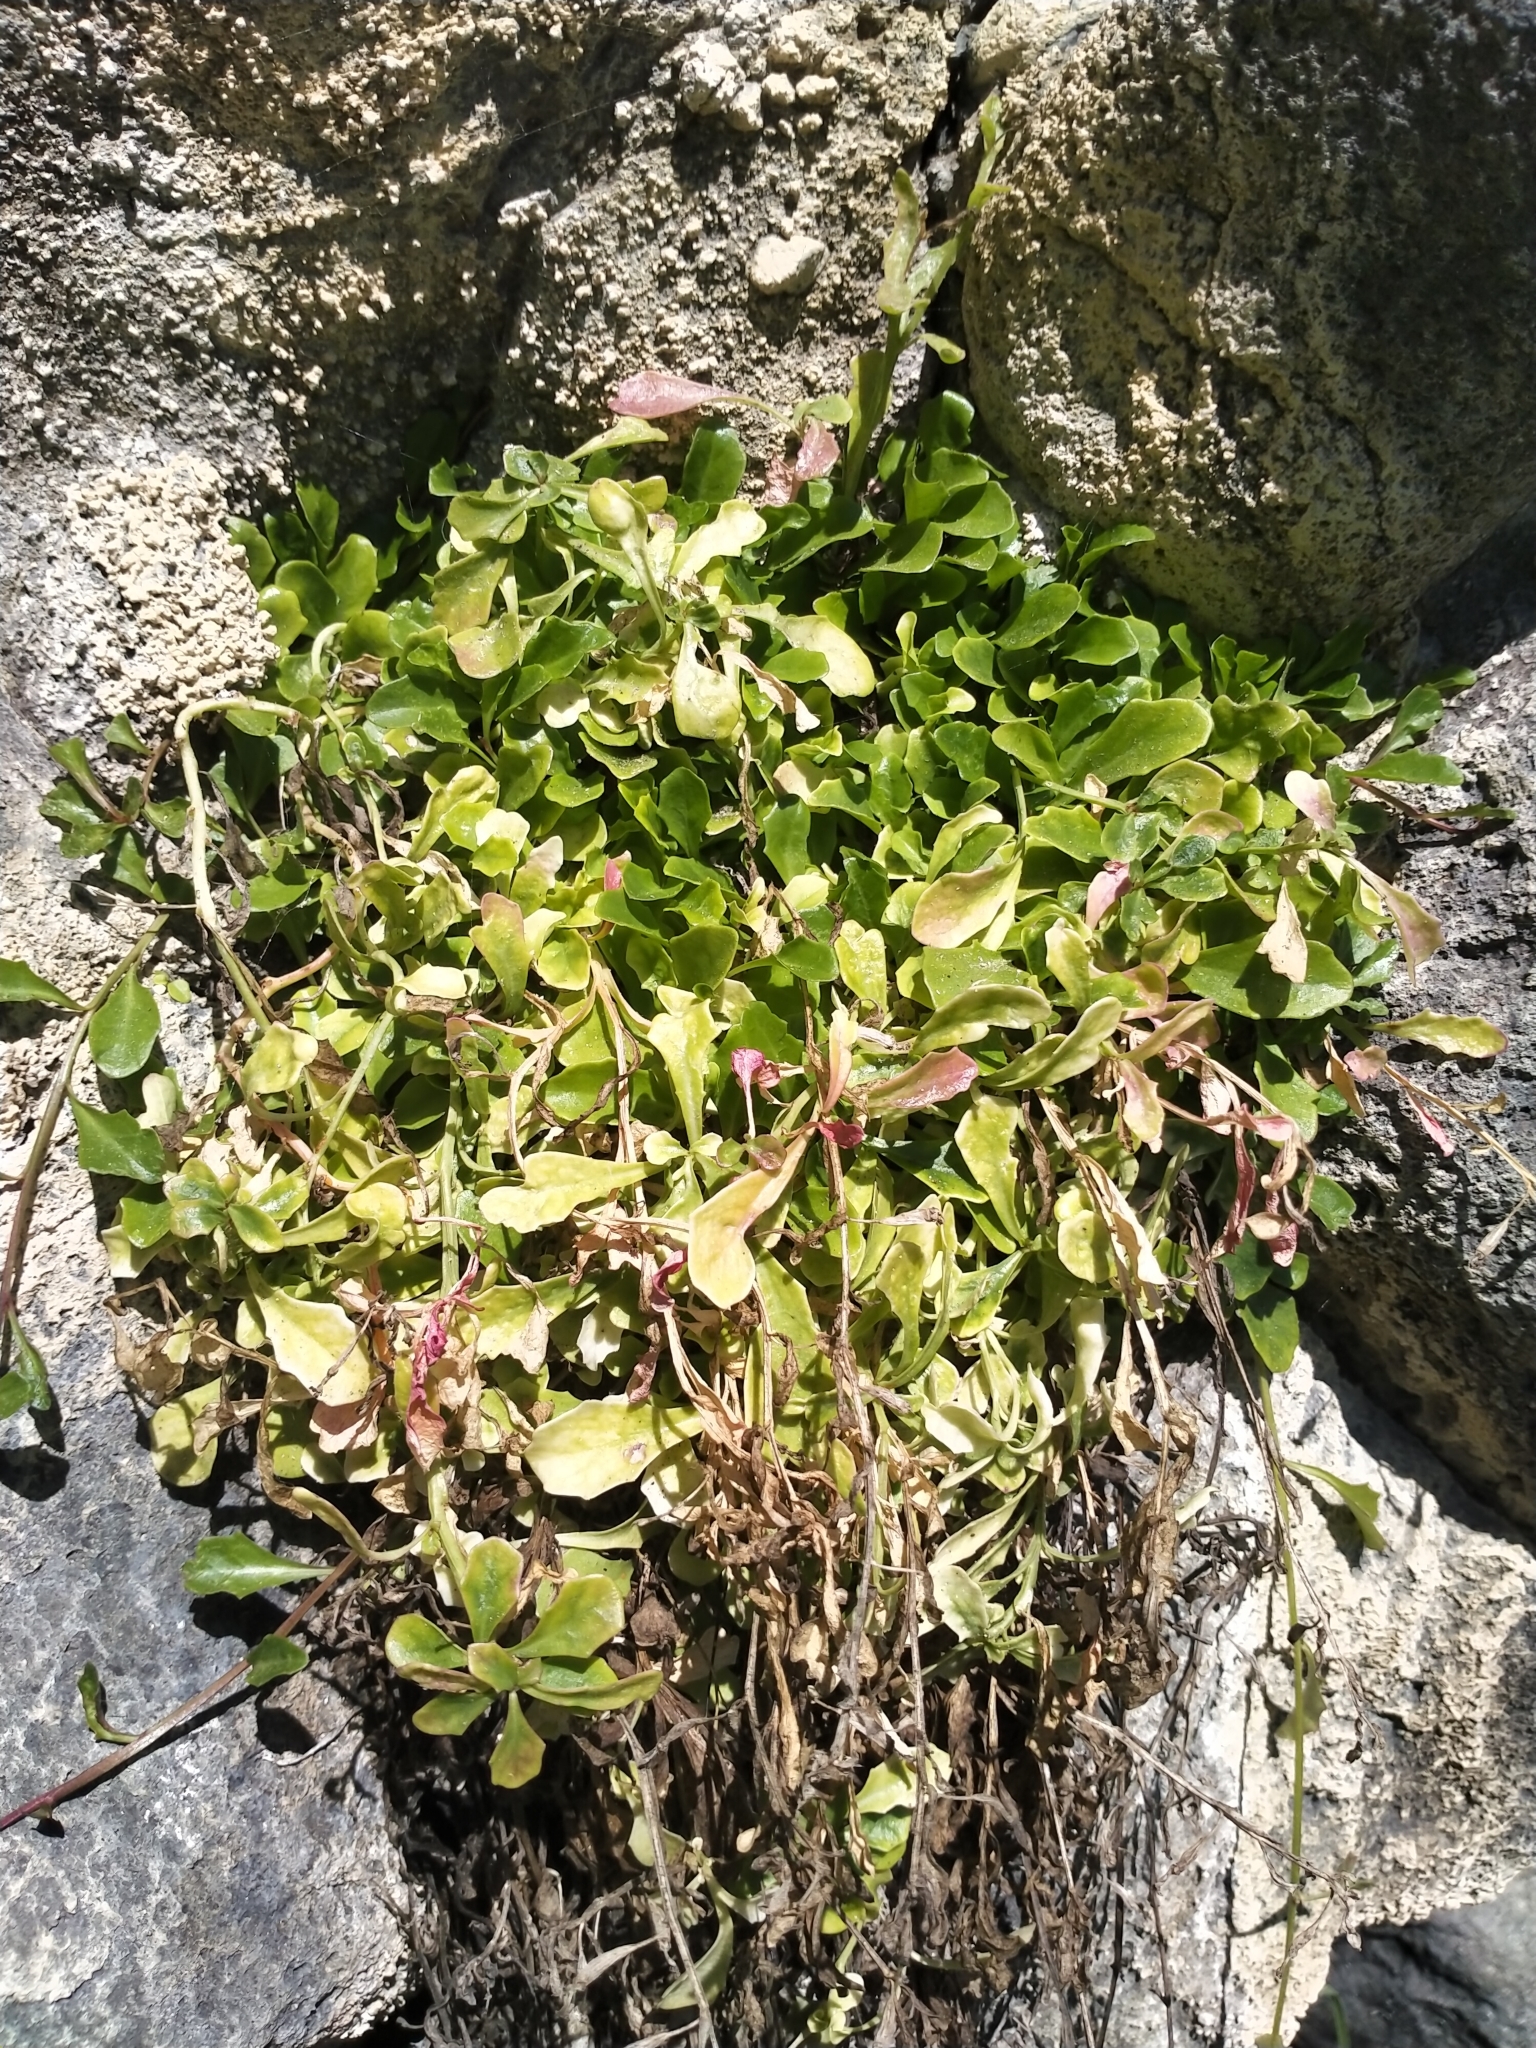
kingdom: Plantae
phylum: Tracheophyta
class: Magnoliopsida
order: Asterales
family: Campanulaceae
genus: Lobelia
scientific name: Lobelia anceps
